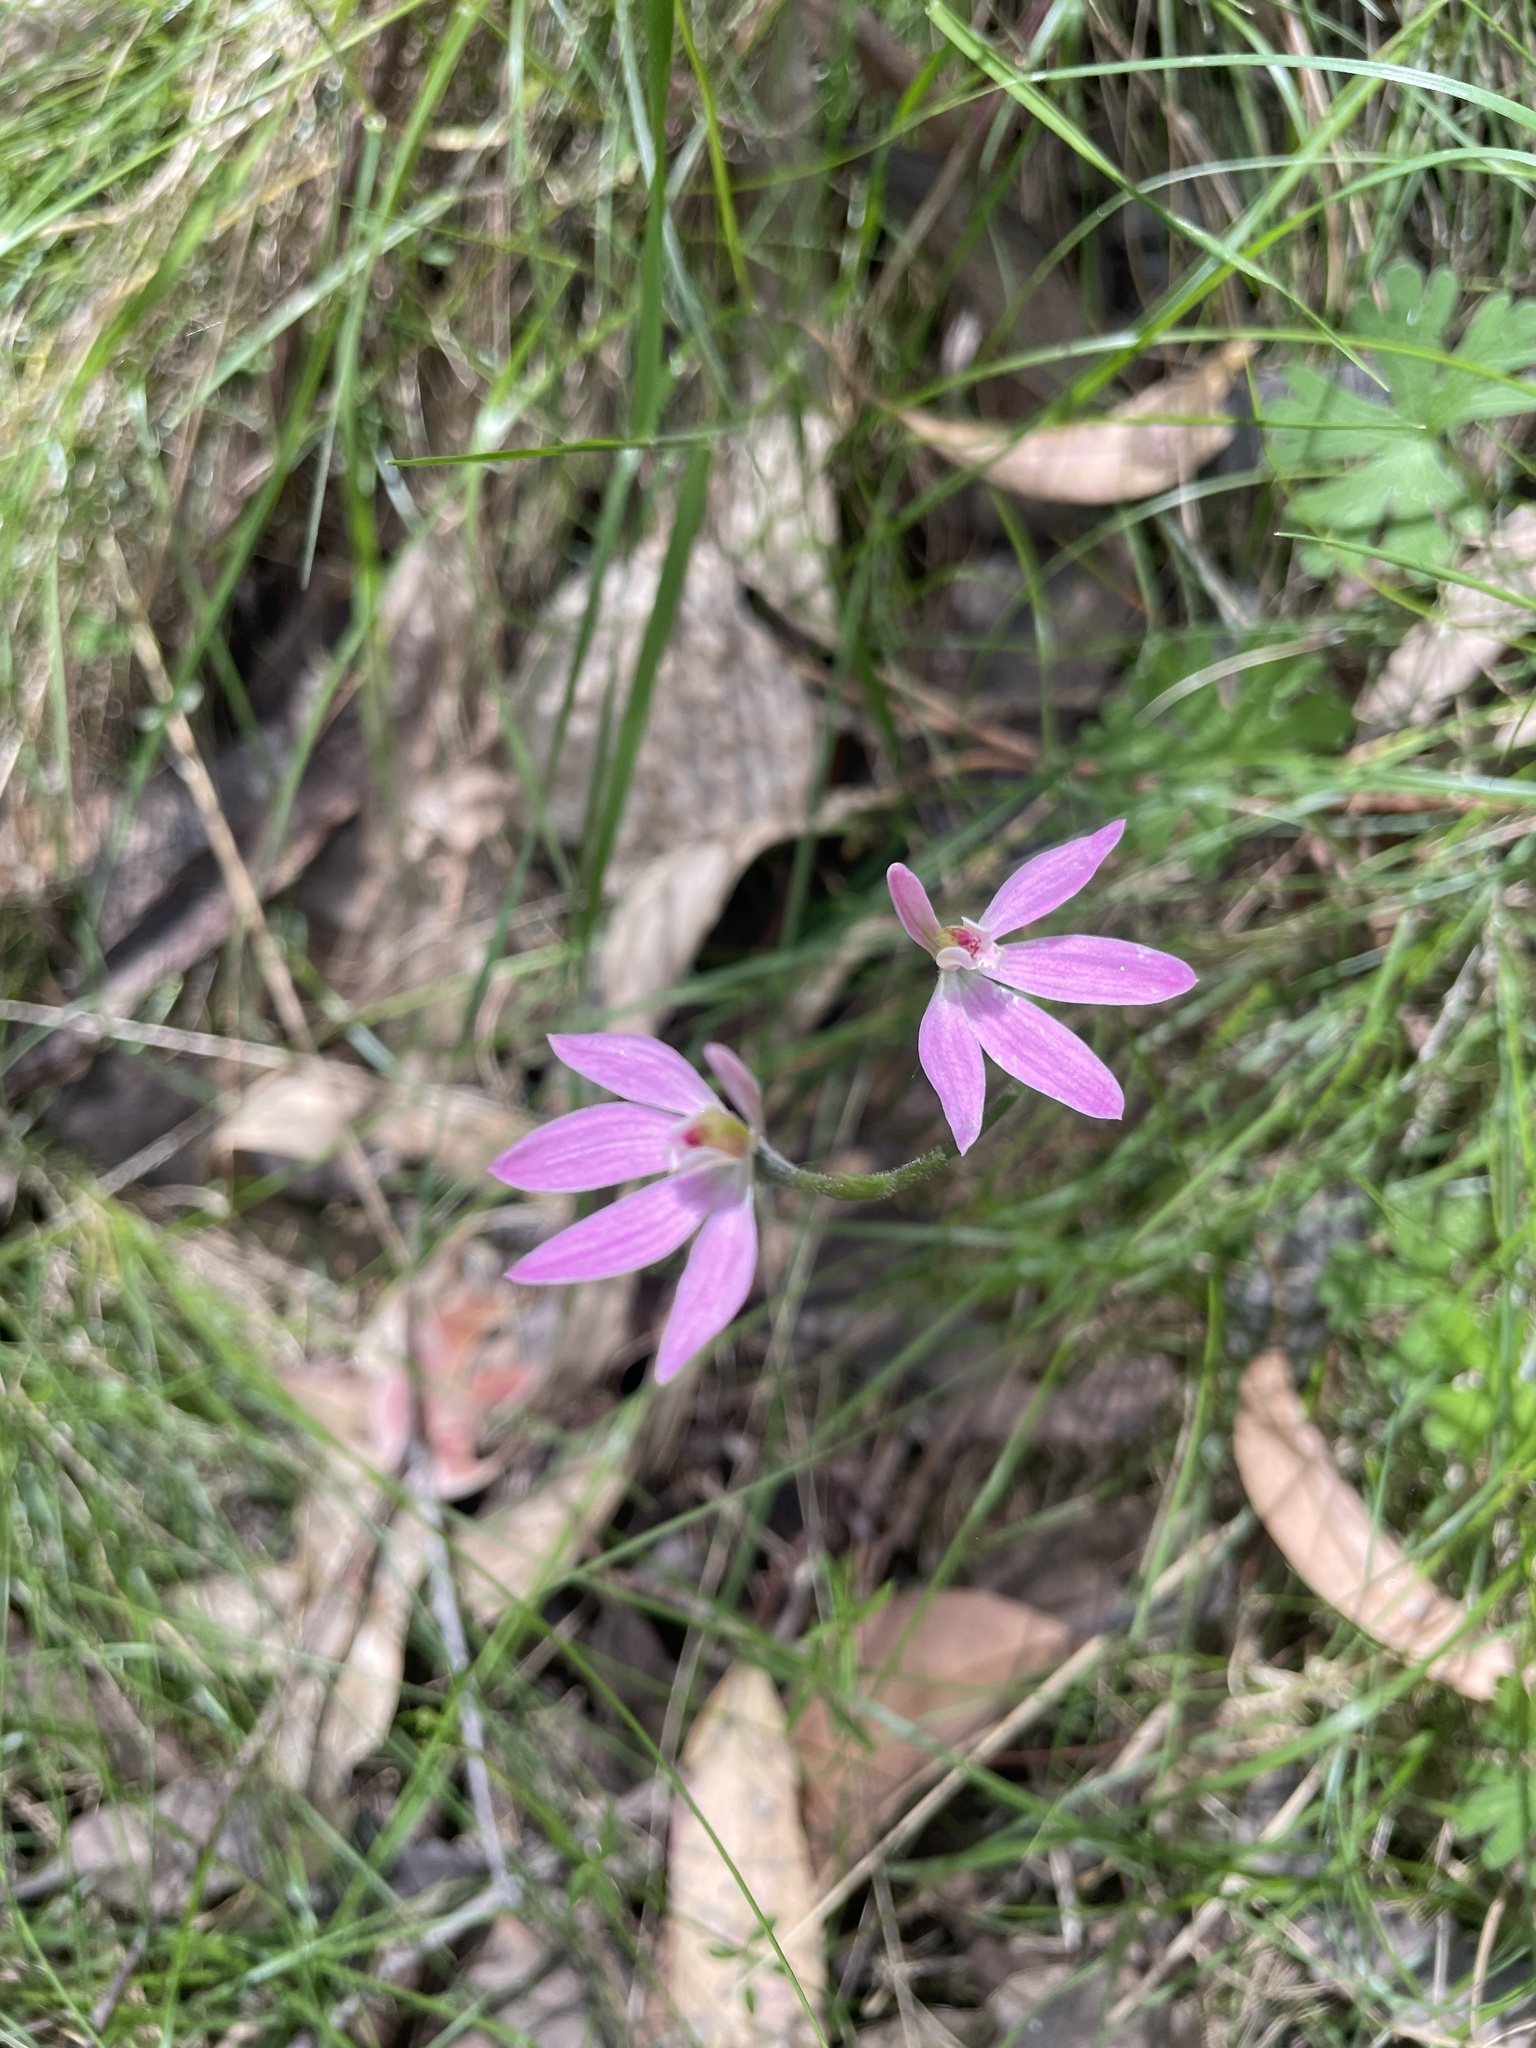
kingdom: Plantae
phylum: Tracheophyta
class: Liliopsida
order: Asparagales
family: Orchidaceae
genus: Caladenia
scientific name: Caladenia carnea
